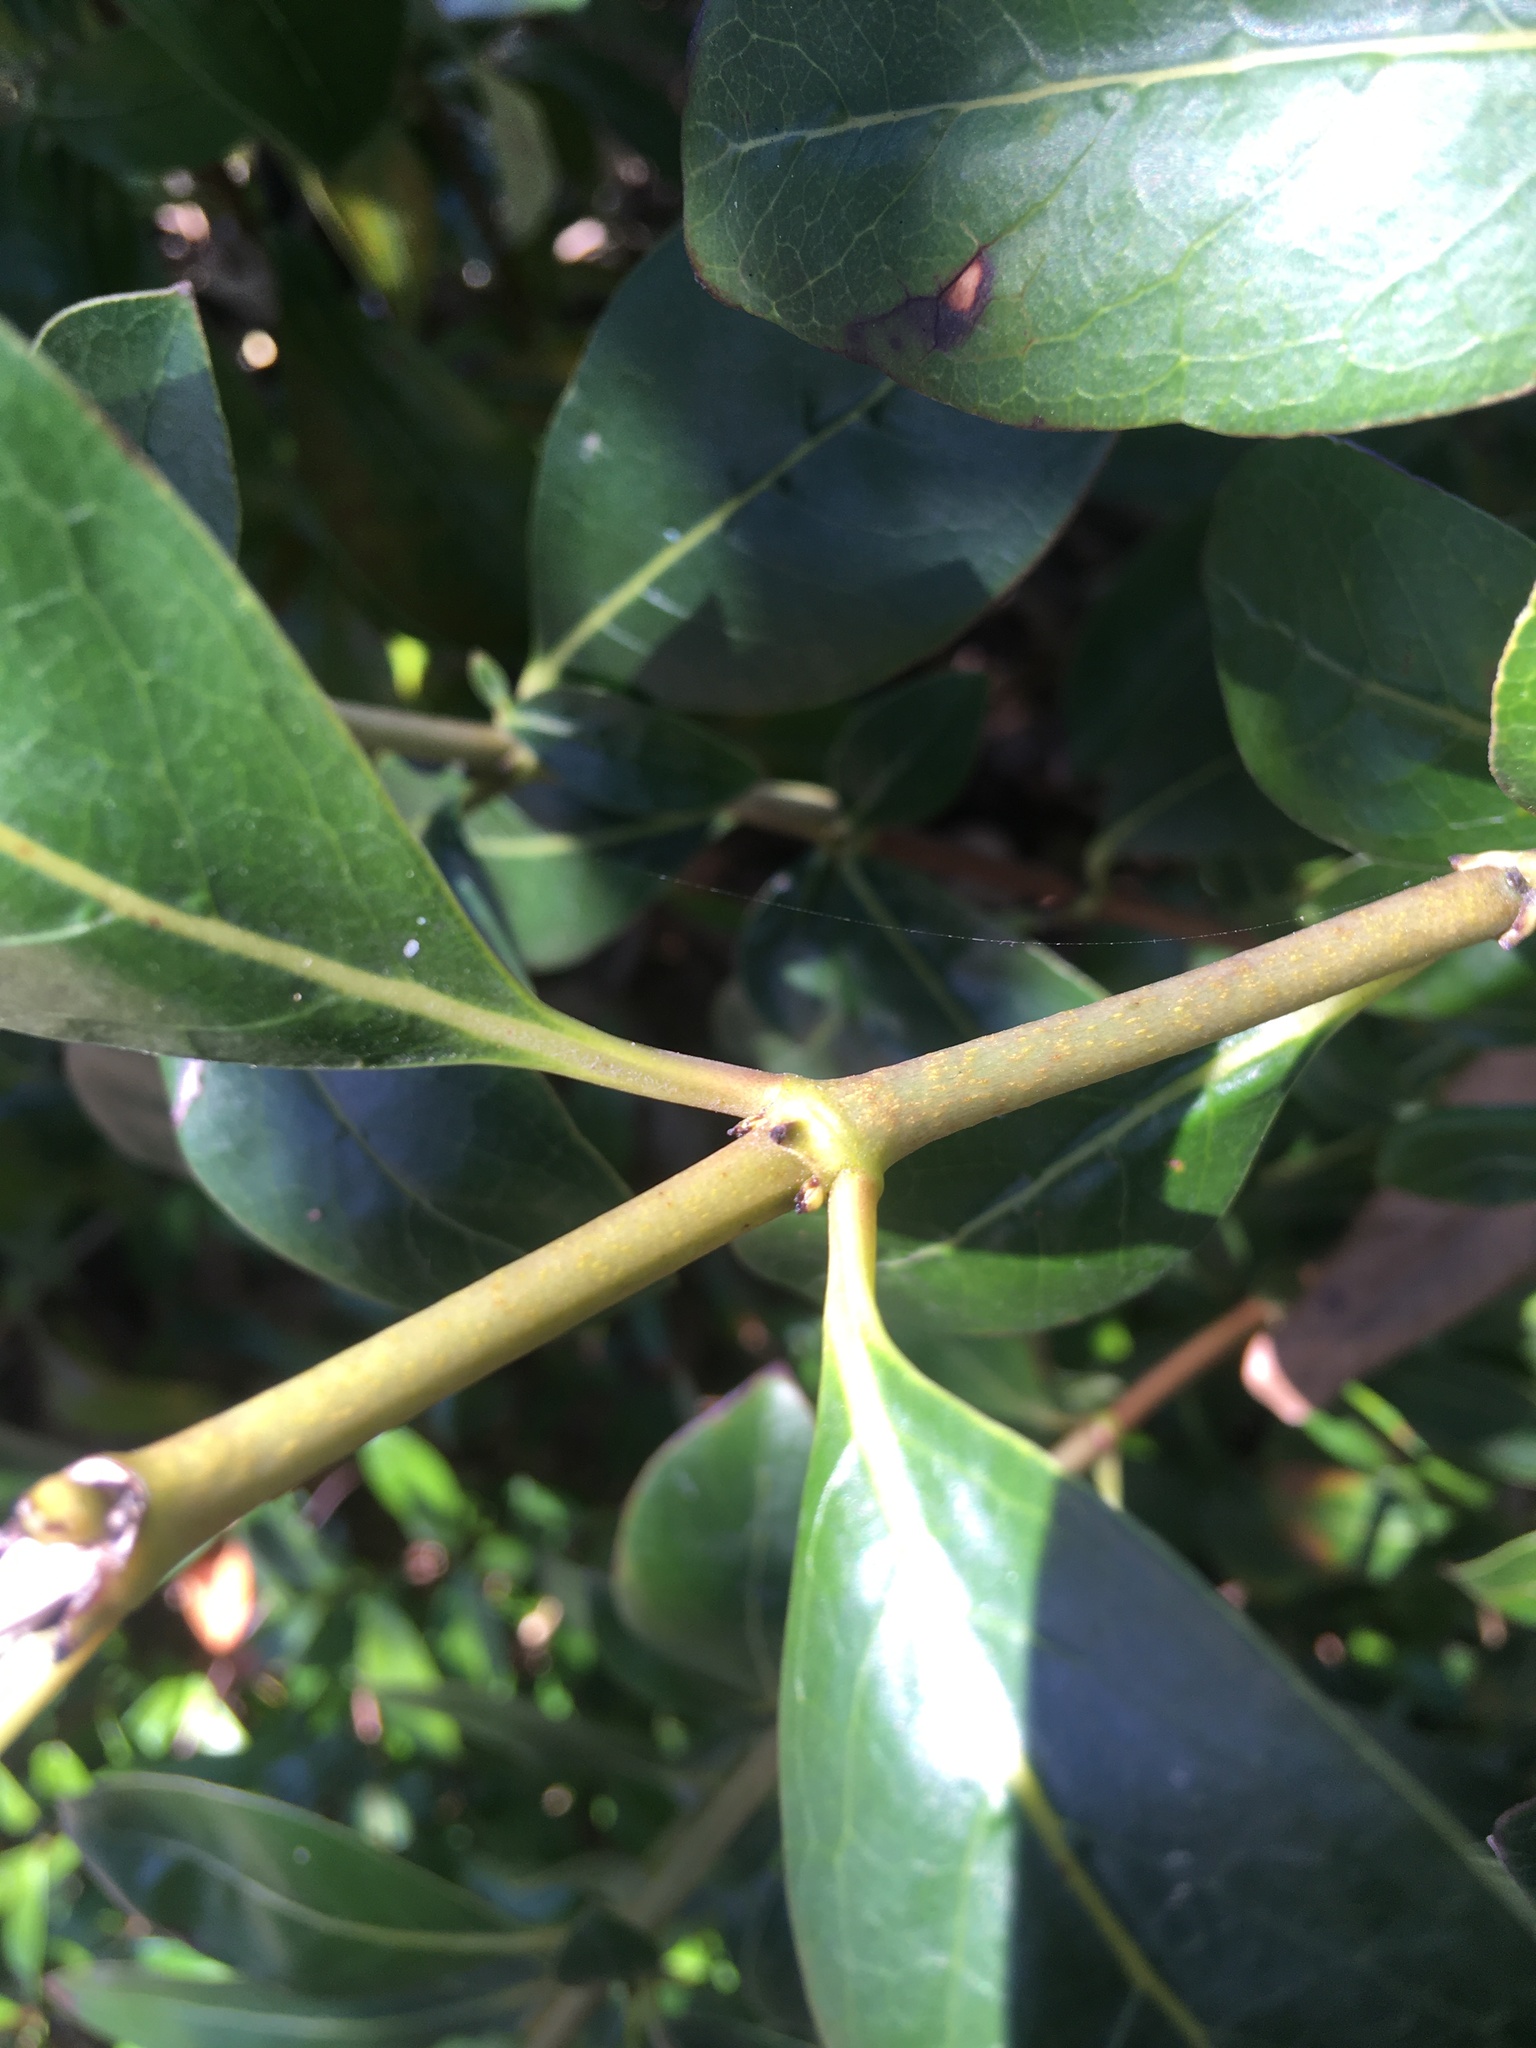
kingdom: Plantae
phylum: Tracheophyta
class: Magnoliopsida
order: Gentianales
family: Rubiaceae
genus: Coprosma
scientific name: Coprosma robusta
